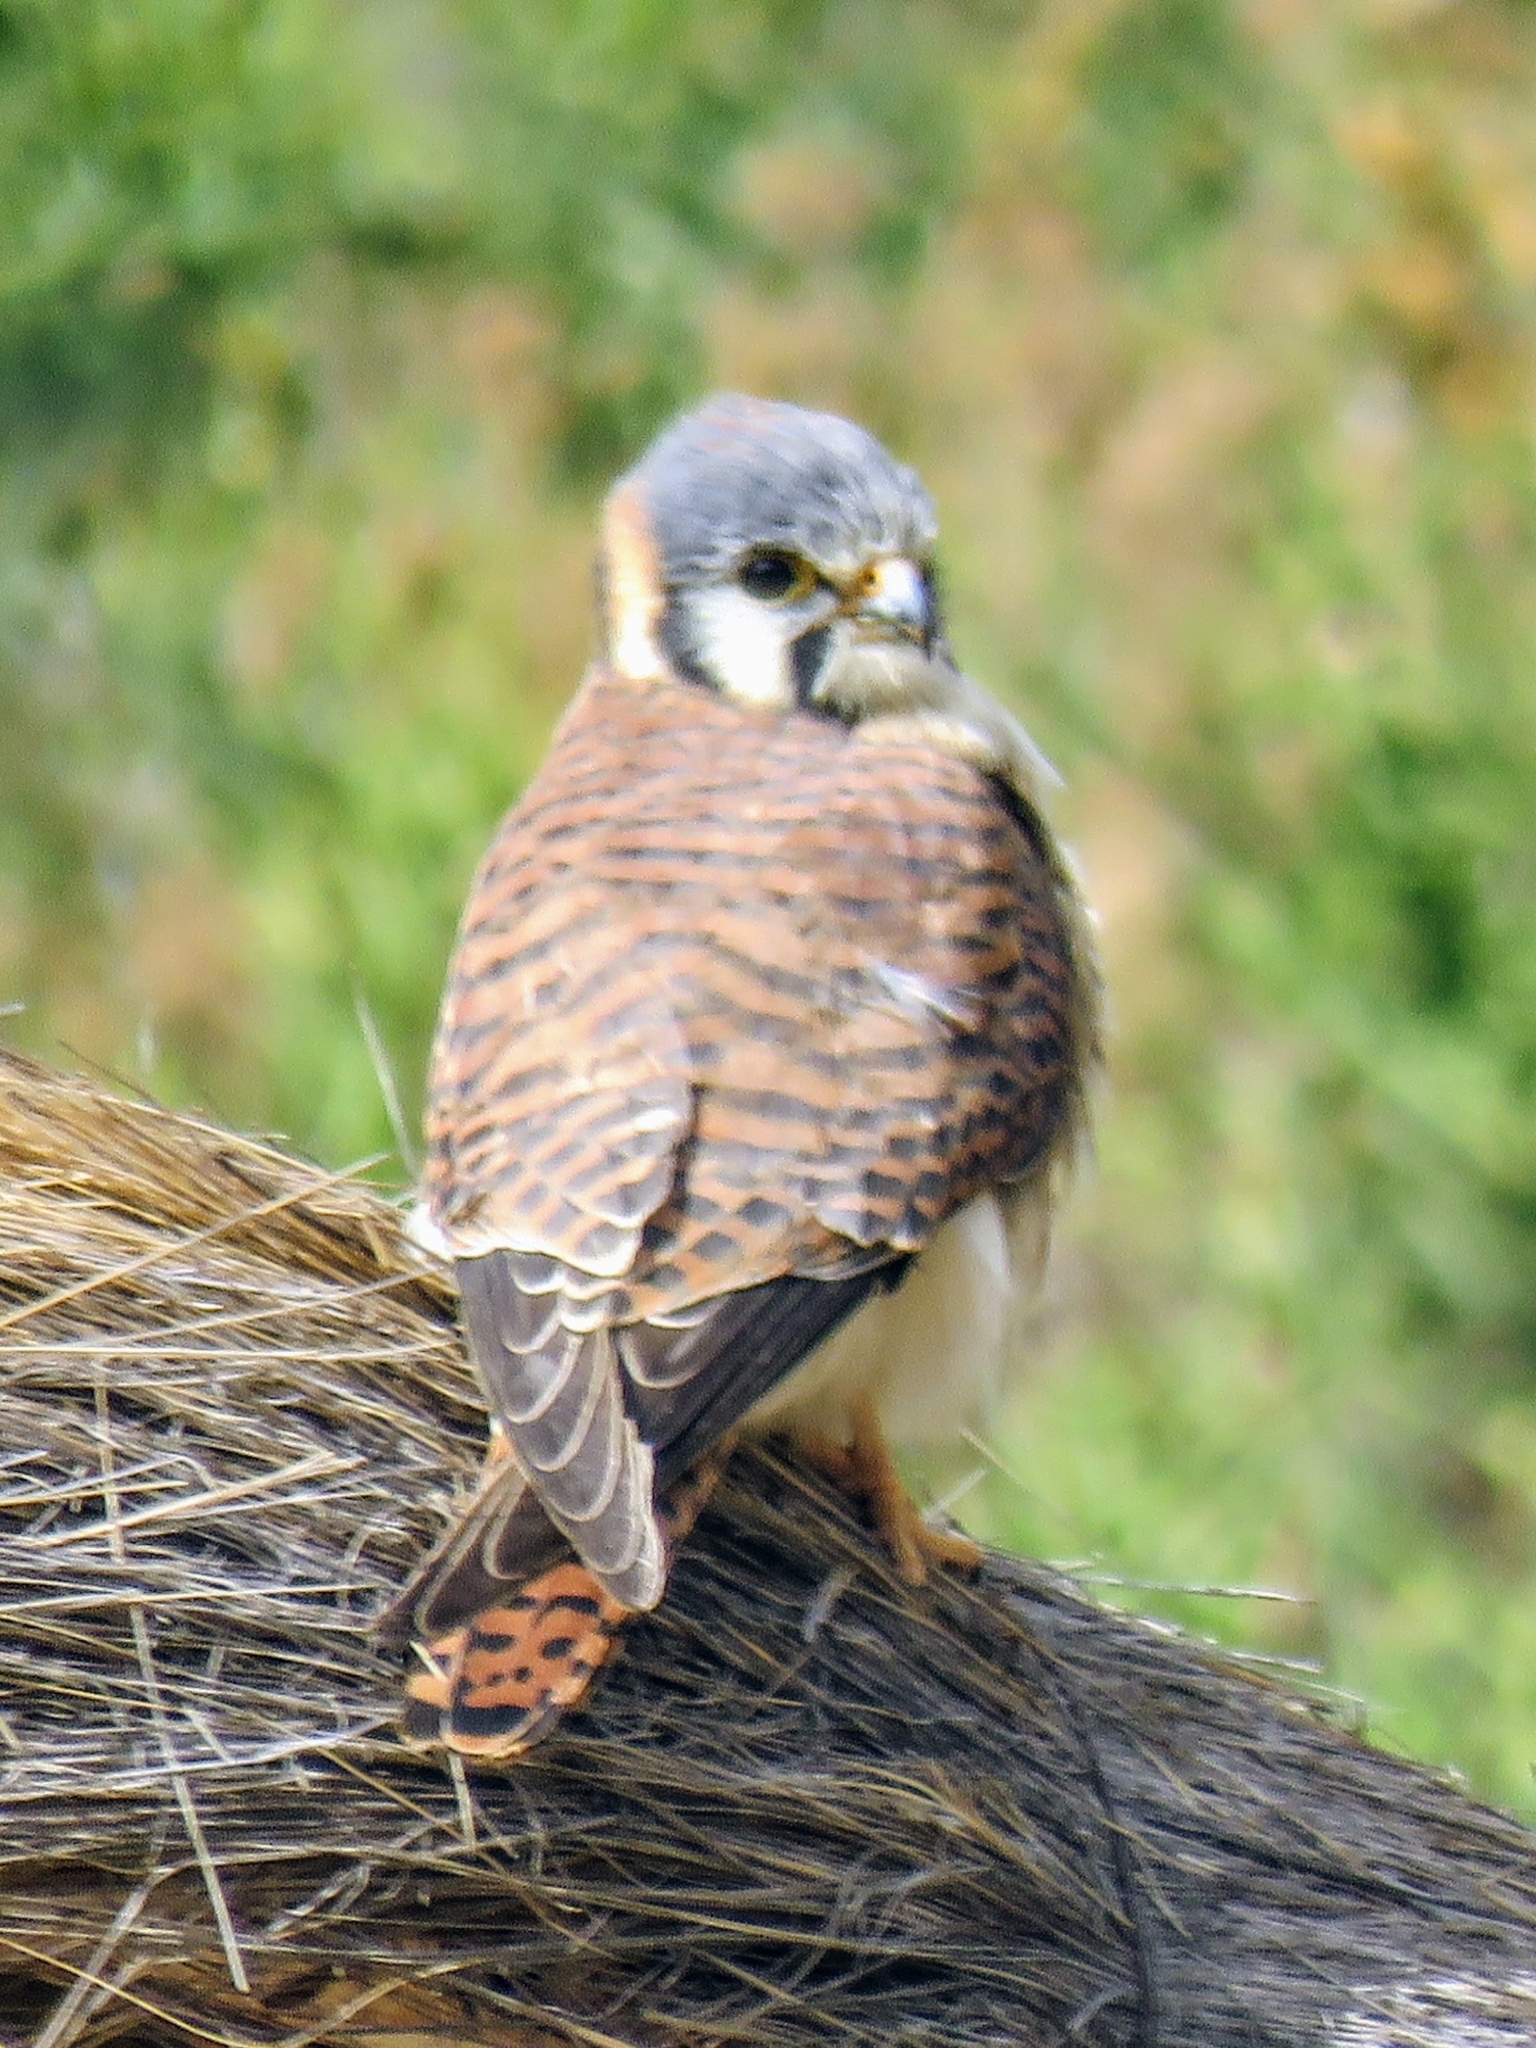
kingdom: Animalia
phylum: Chordata
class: Aves
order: Falconiformes
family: Falconidae
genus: Falco
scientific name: Falco sparverius
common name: American kestrel
